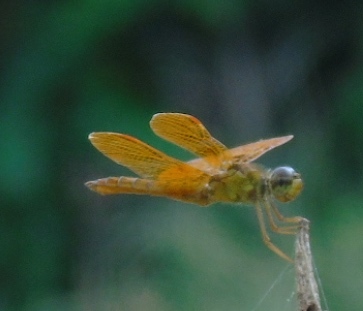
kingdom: Animalia
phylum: Arthropoda
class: Insecta
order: Odonata
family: Libellulidae
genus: Perithemis
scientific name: Perithemis
